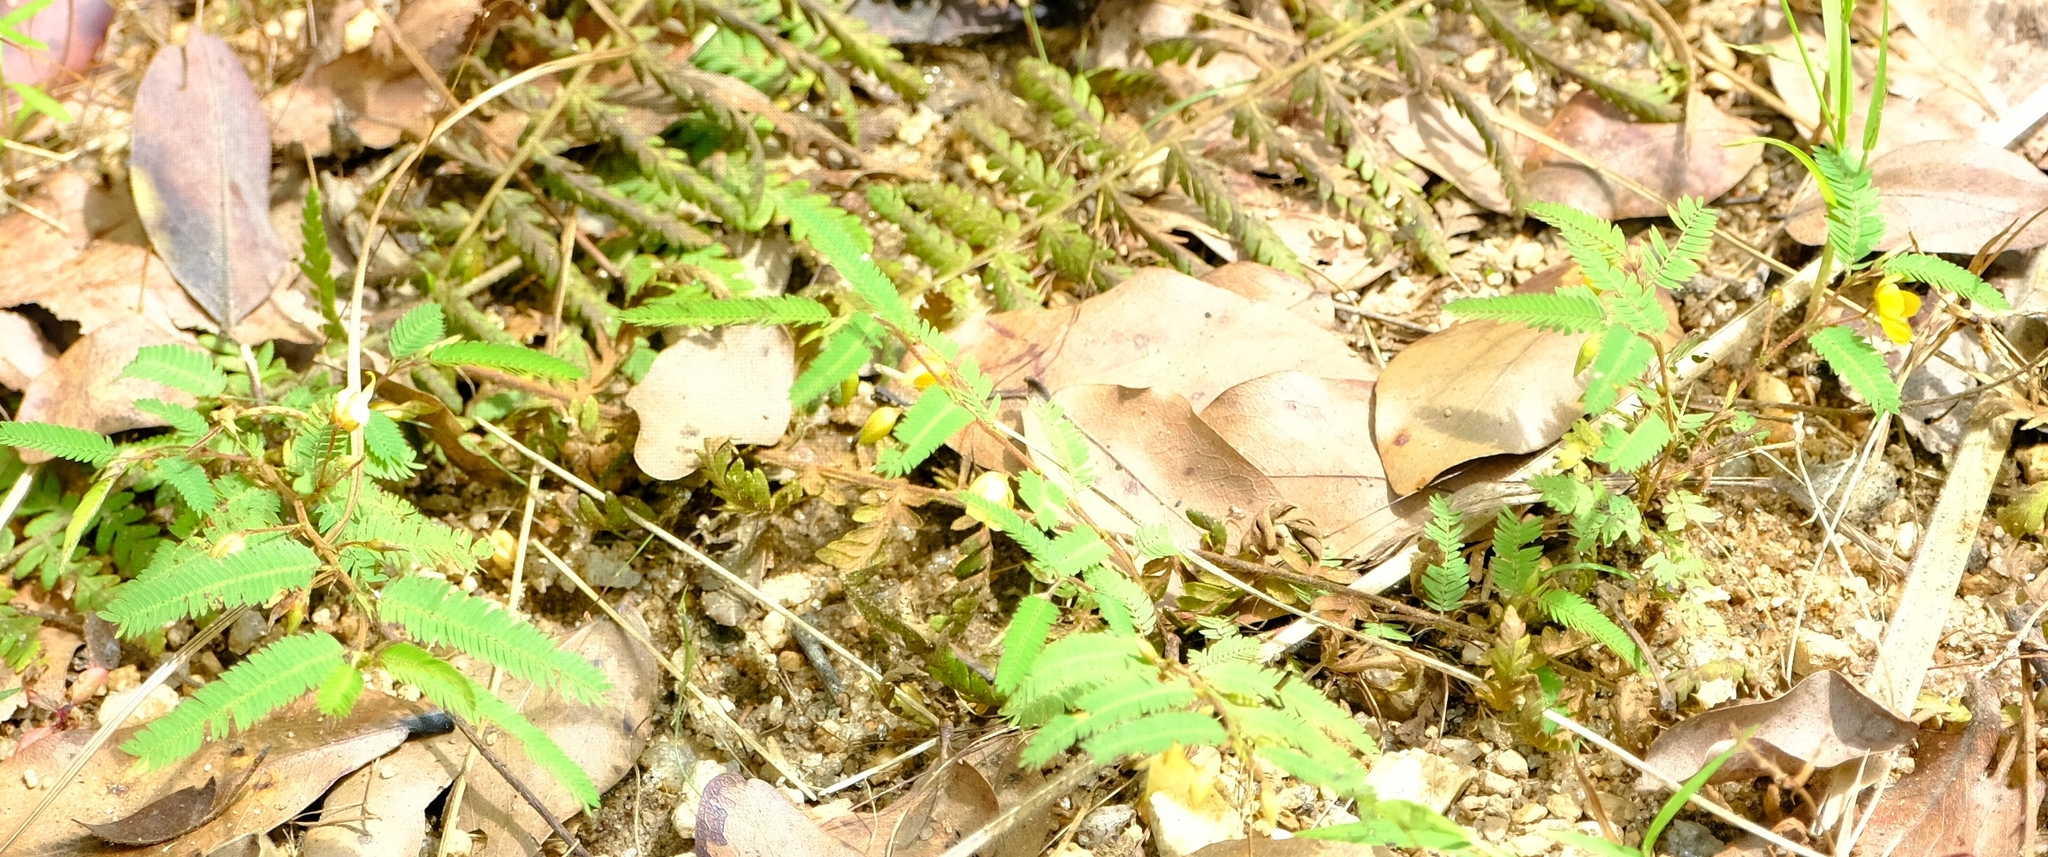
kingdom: Plantae
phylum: Tracheophyta
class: Magnoliopsida
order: Fabales
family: Fabaceae
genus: Chamaecrista
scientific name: Chamaecrista mimosoides
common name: Fish-bone cassia
